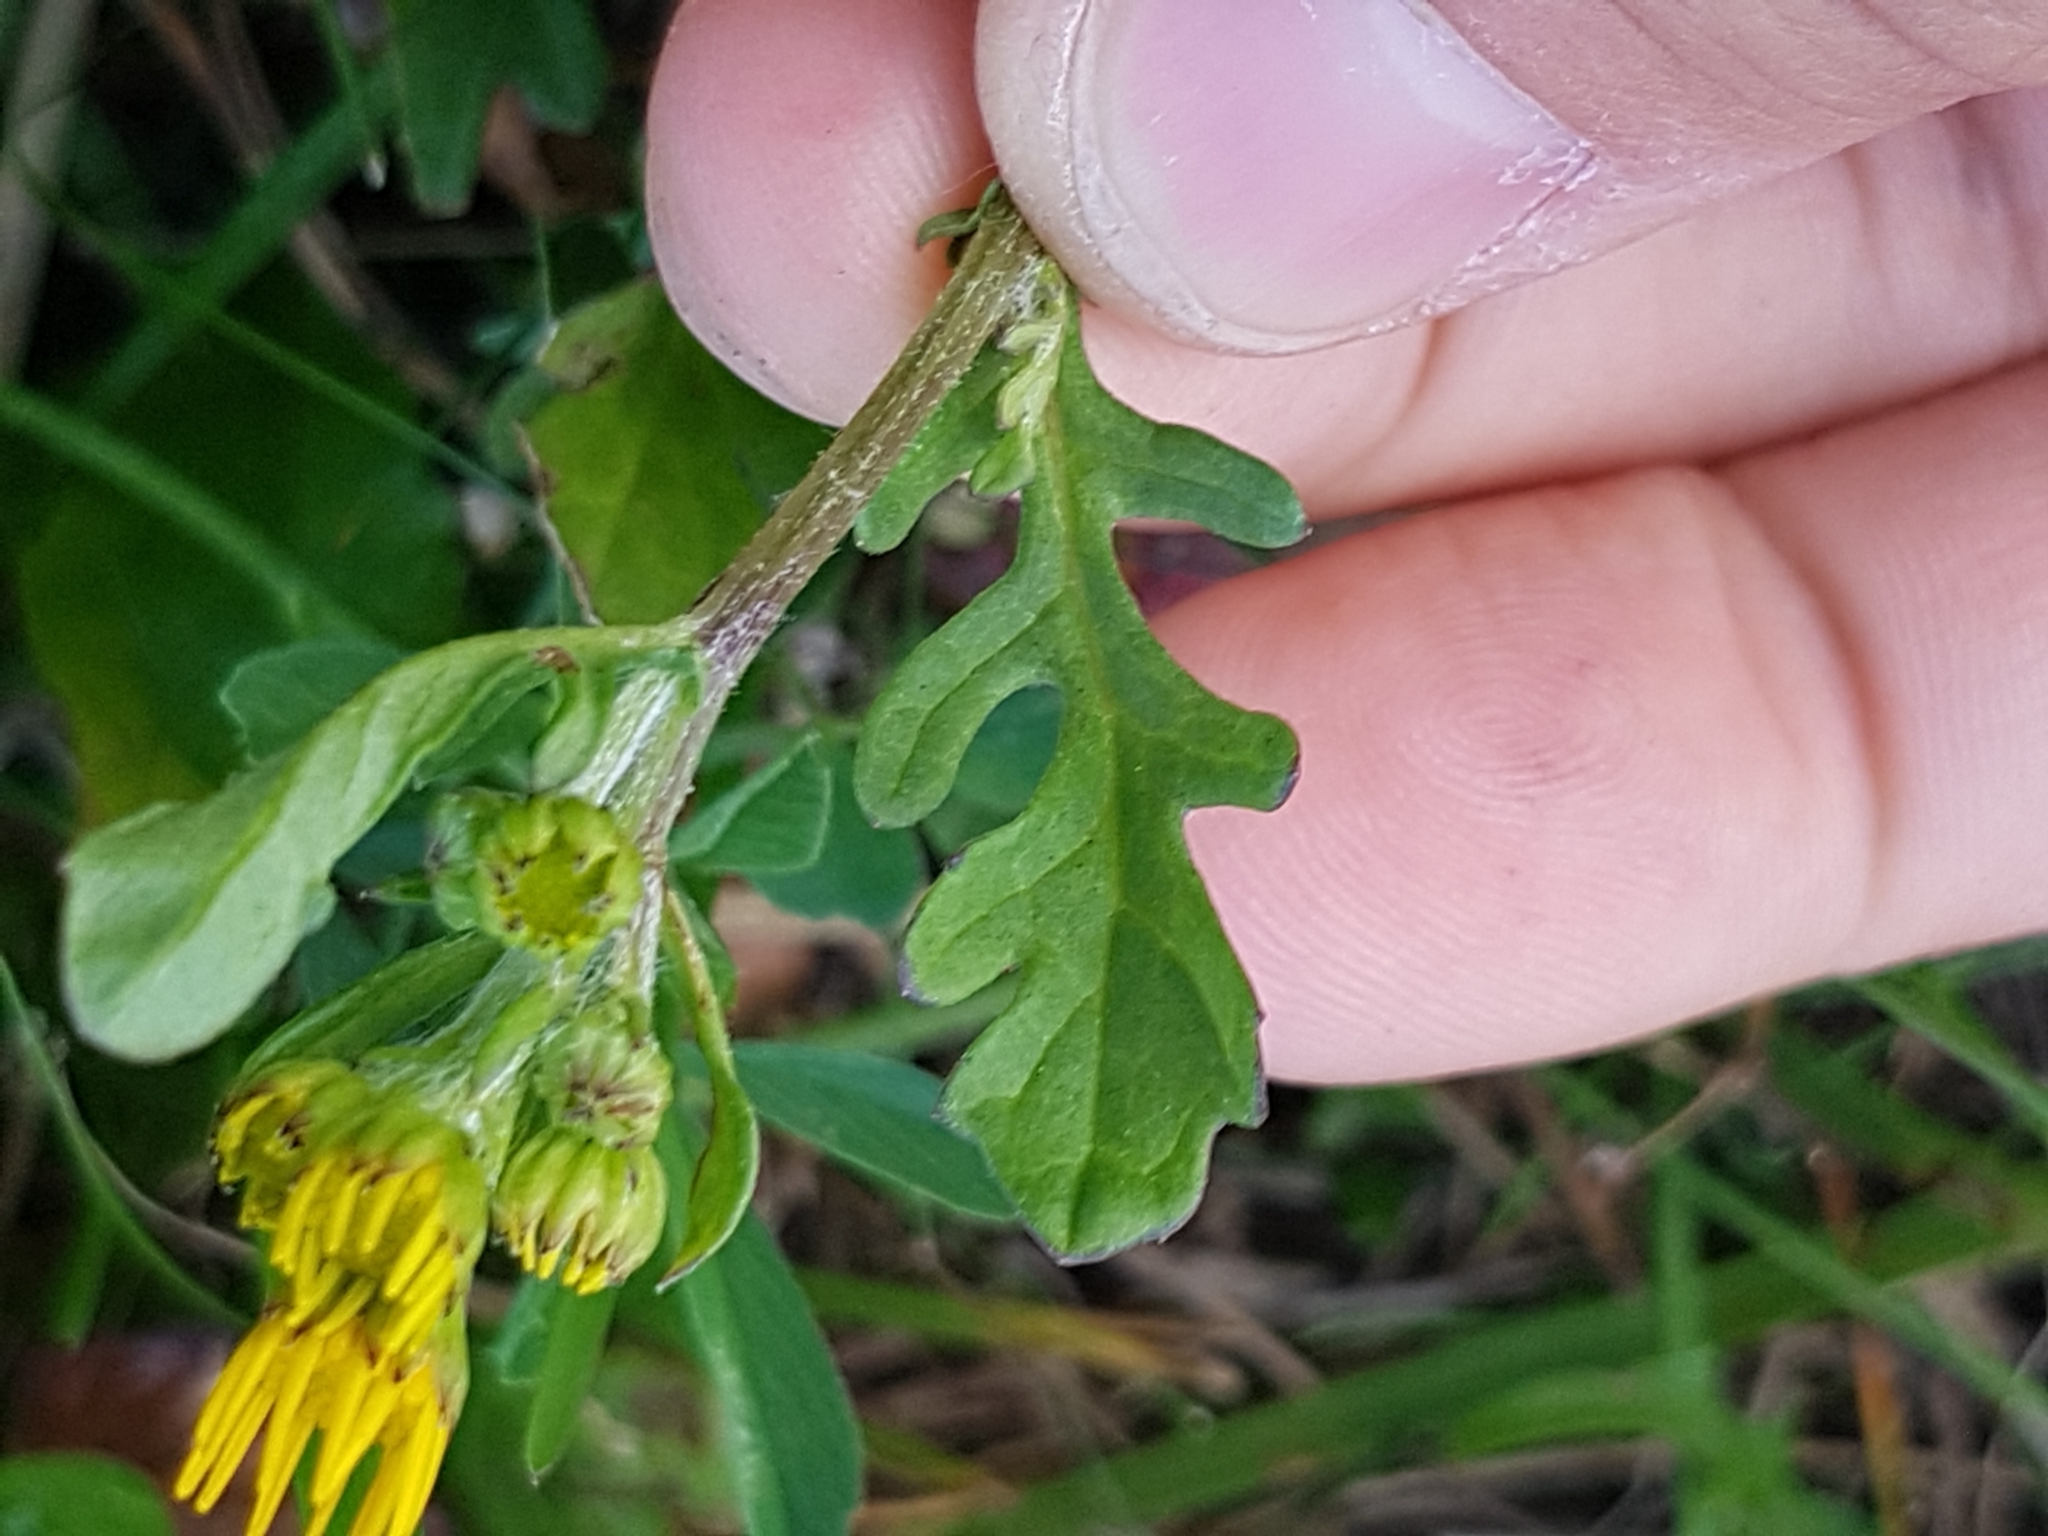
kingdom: Plantae
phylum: Tracheophyta
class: Magnoliopsida
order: Asterales
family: Asteraceae
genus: Jacobaea
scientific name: Jacobaea vulgaris
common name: Stinking willie
